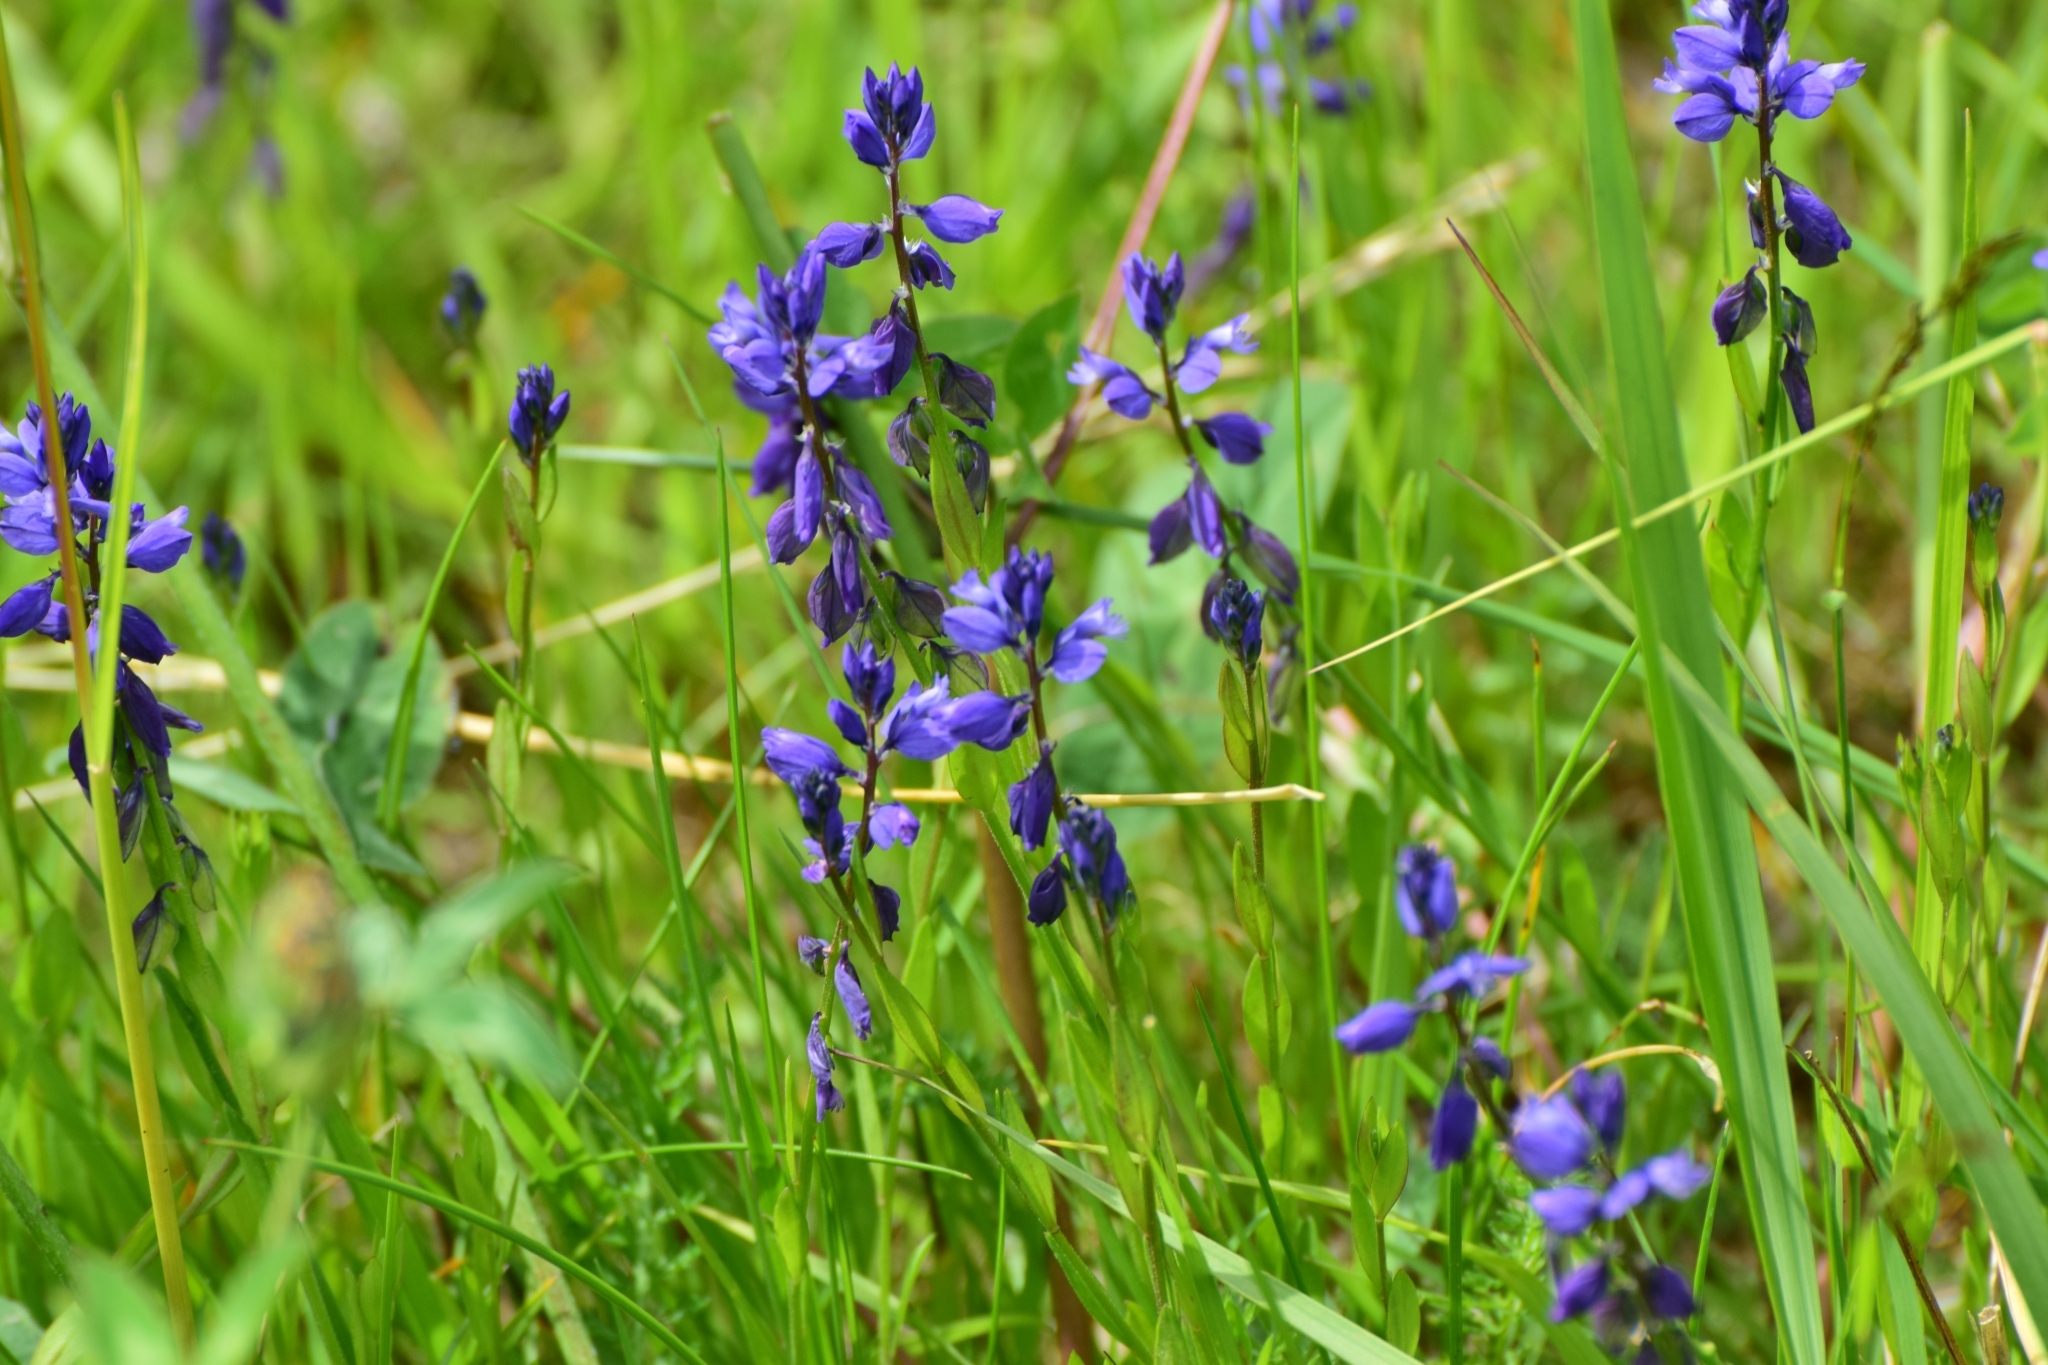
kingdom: Plantae
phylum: Tracheophyta
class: Magnoliopsida
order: Fabales
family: Polygalaceae
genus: Polygala
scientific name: Polygala vulgaris
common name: Common milkwort
